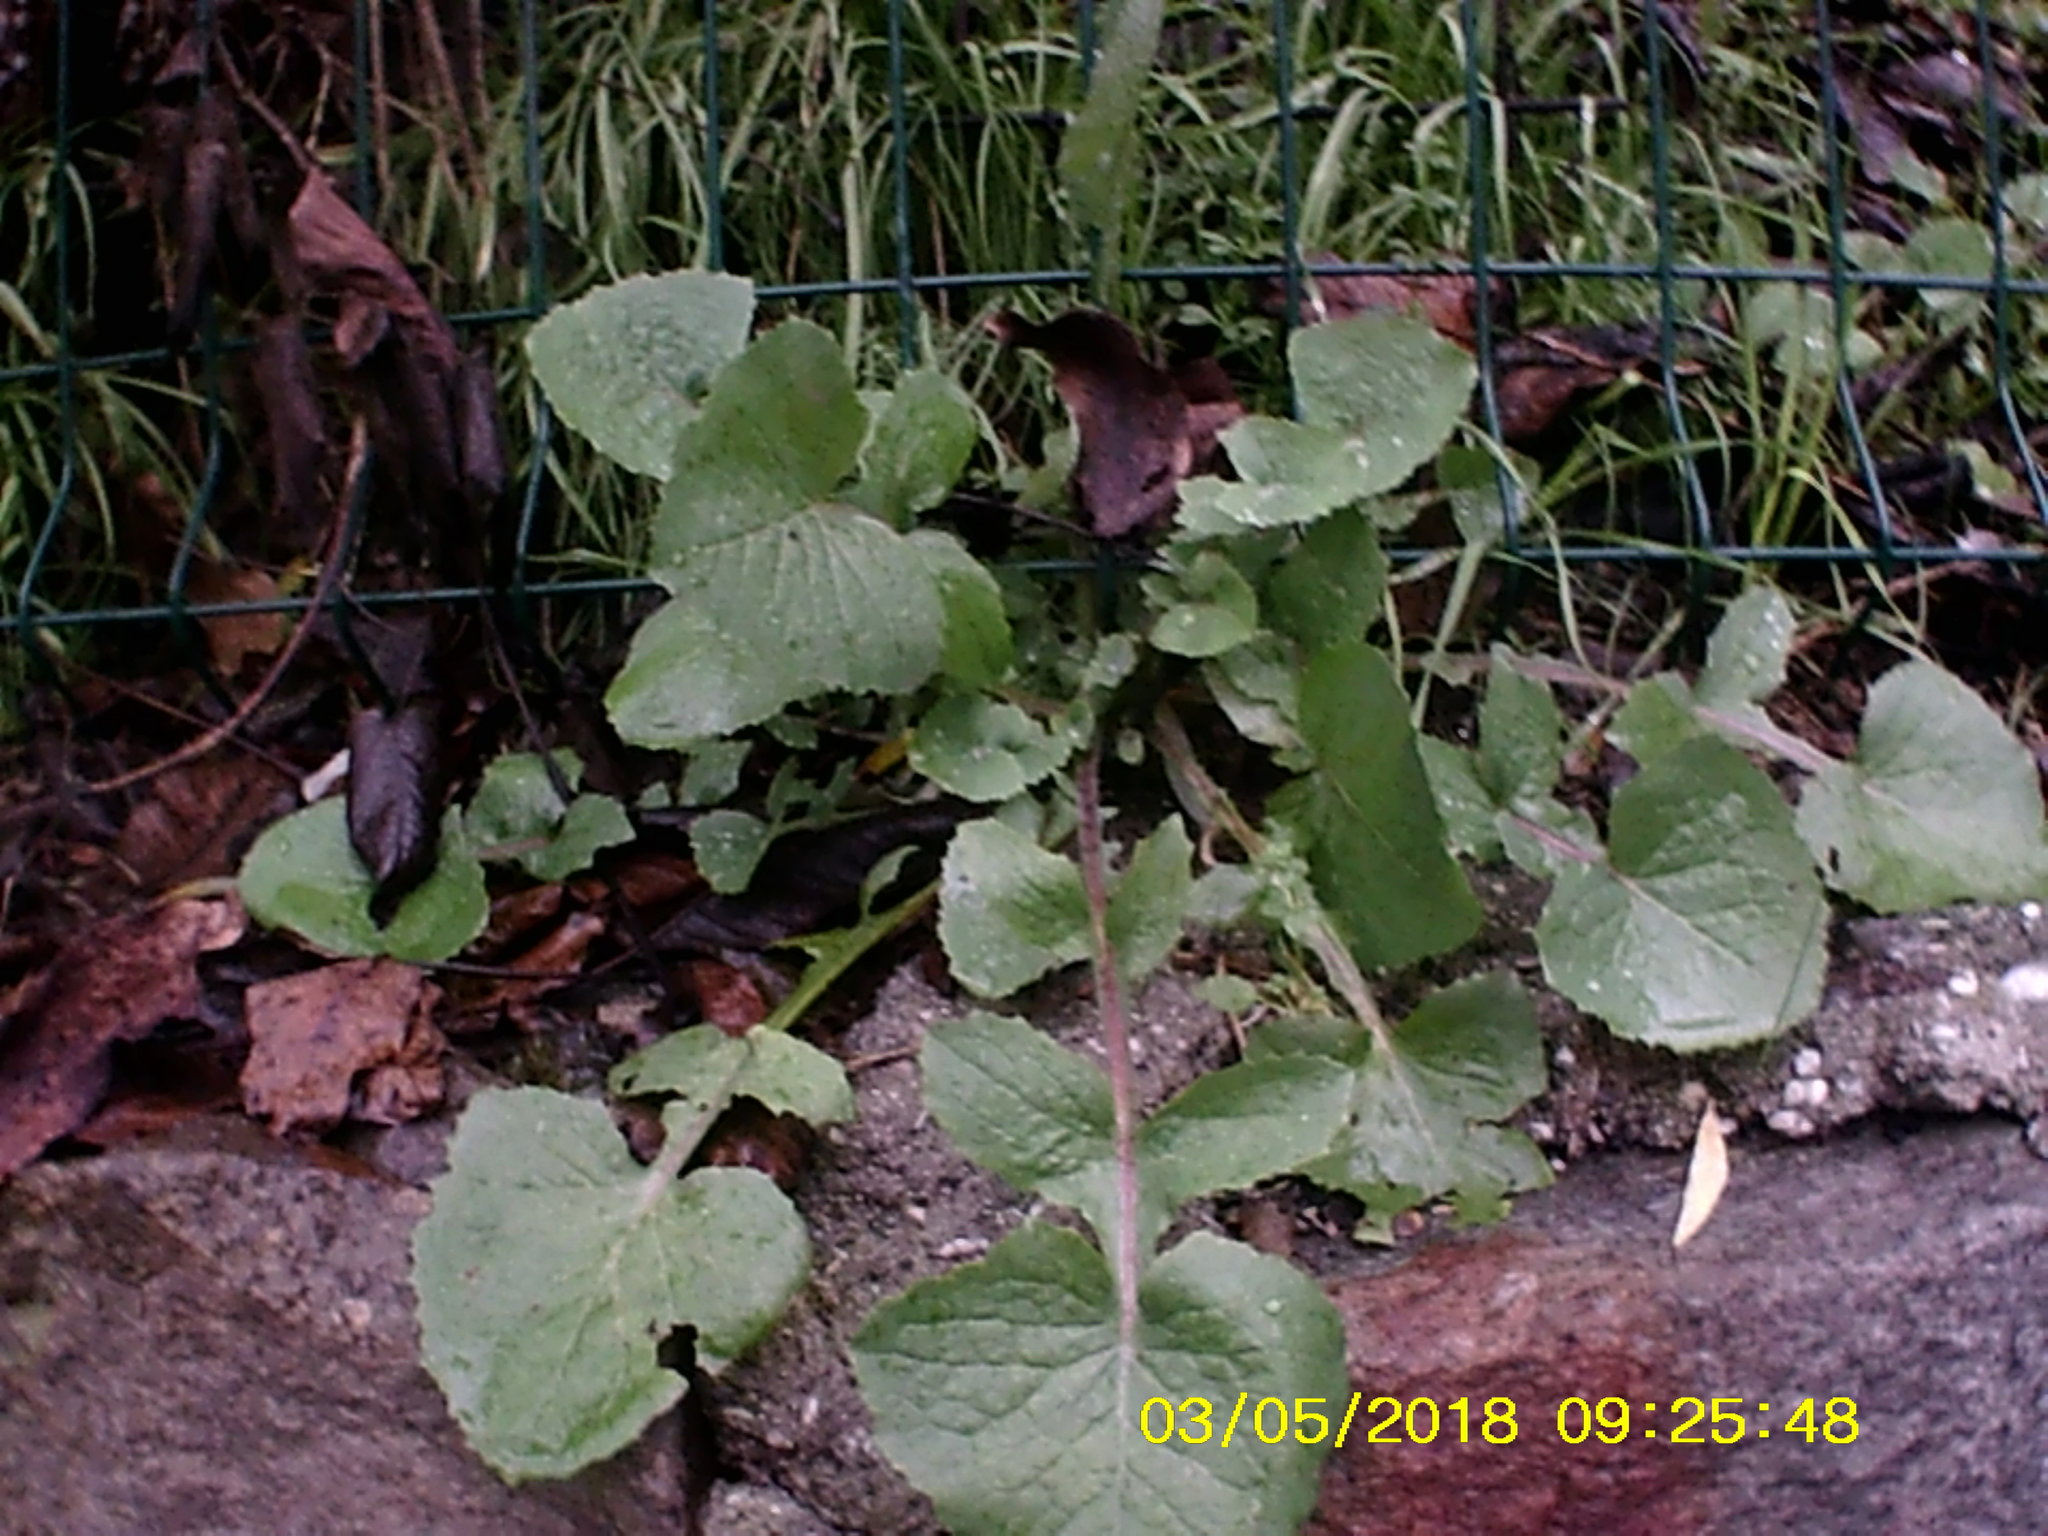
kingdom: Plantae
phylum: Tracheophyta
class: Magnoliopsida
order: Asterales
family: Asteraceae
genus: Sonchus
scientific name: Sonchus oleraceus
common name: Common sowthistle
